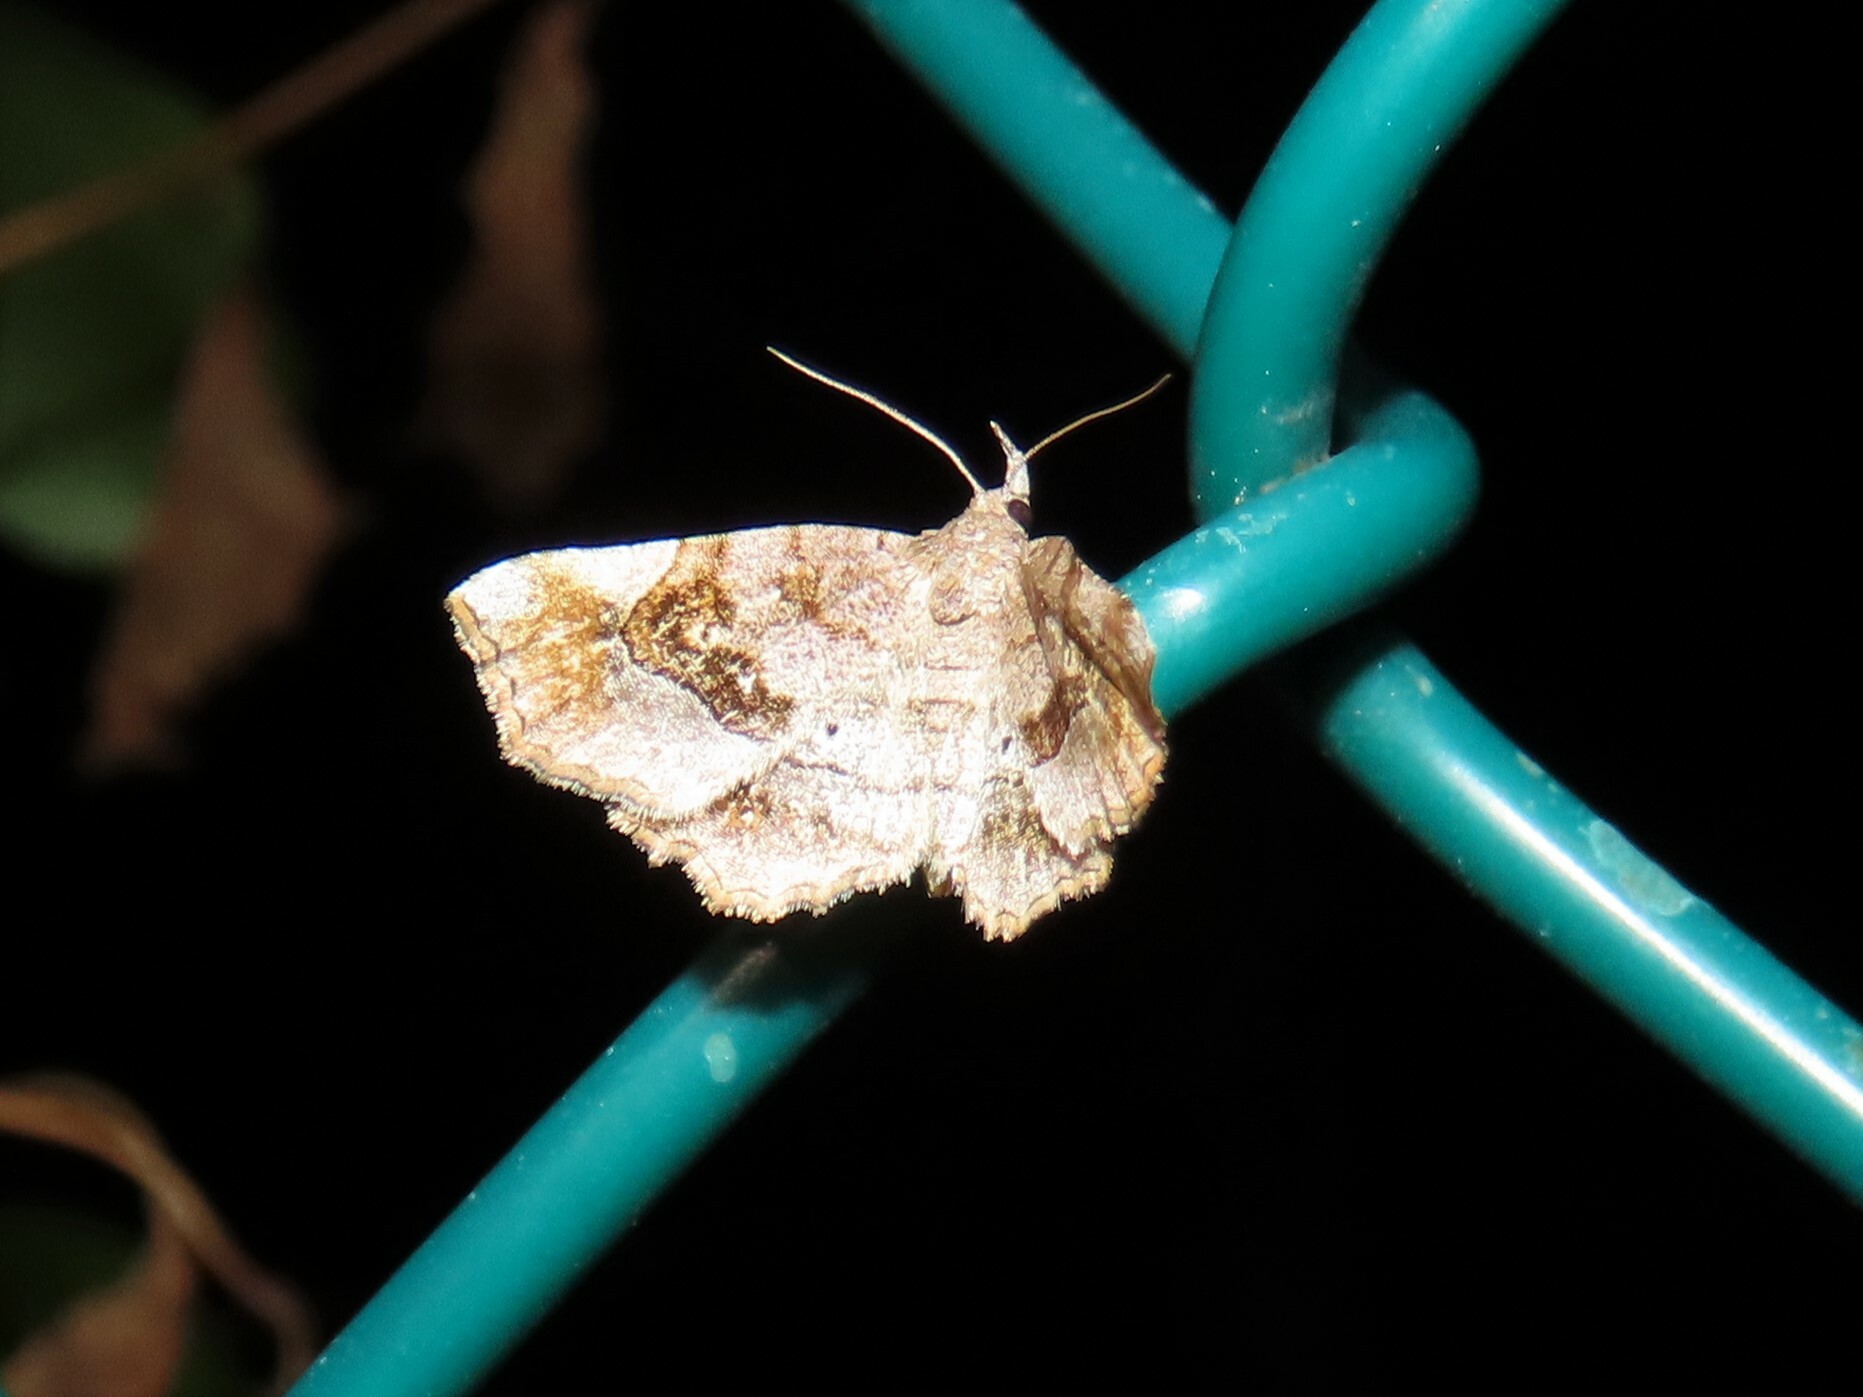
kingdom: Animalia
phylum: Arthropoda
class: Insecta
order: Lepidoptera
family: Erebidae
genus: Pangrapta
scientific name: Pangrapta decoralis
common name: Decorated owlet
